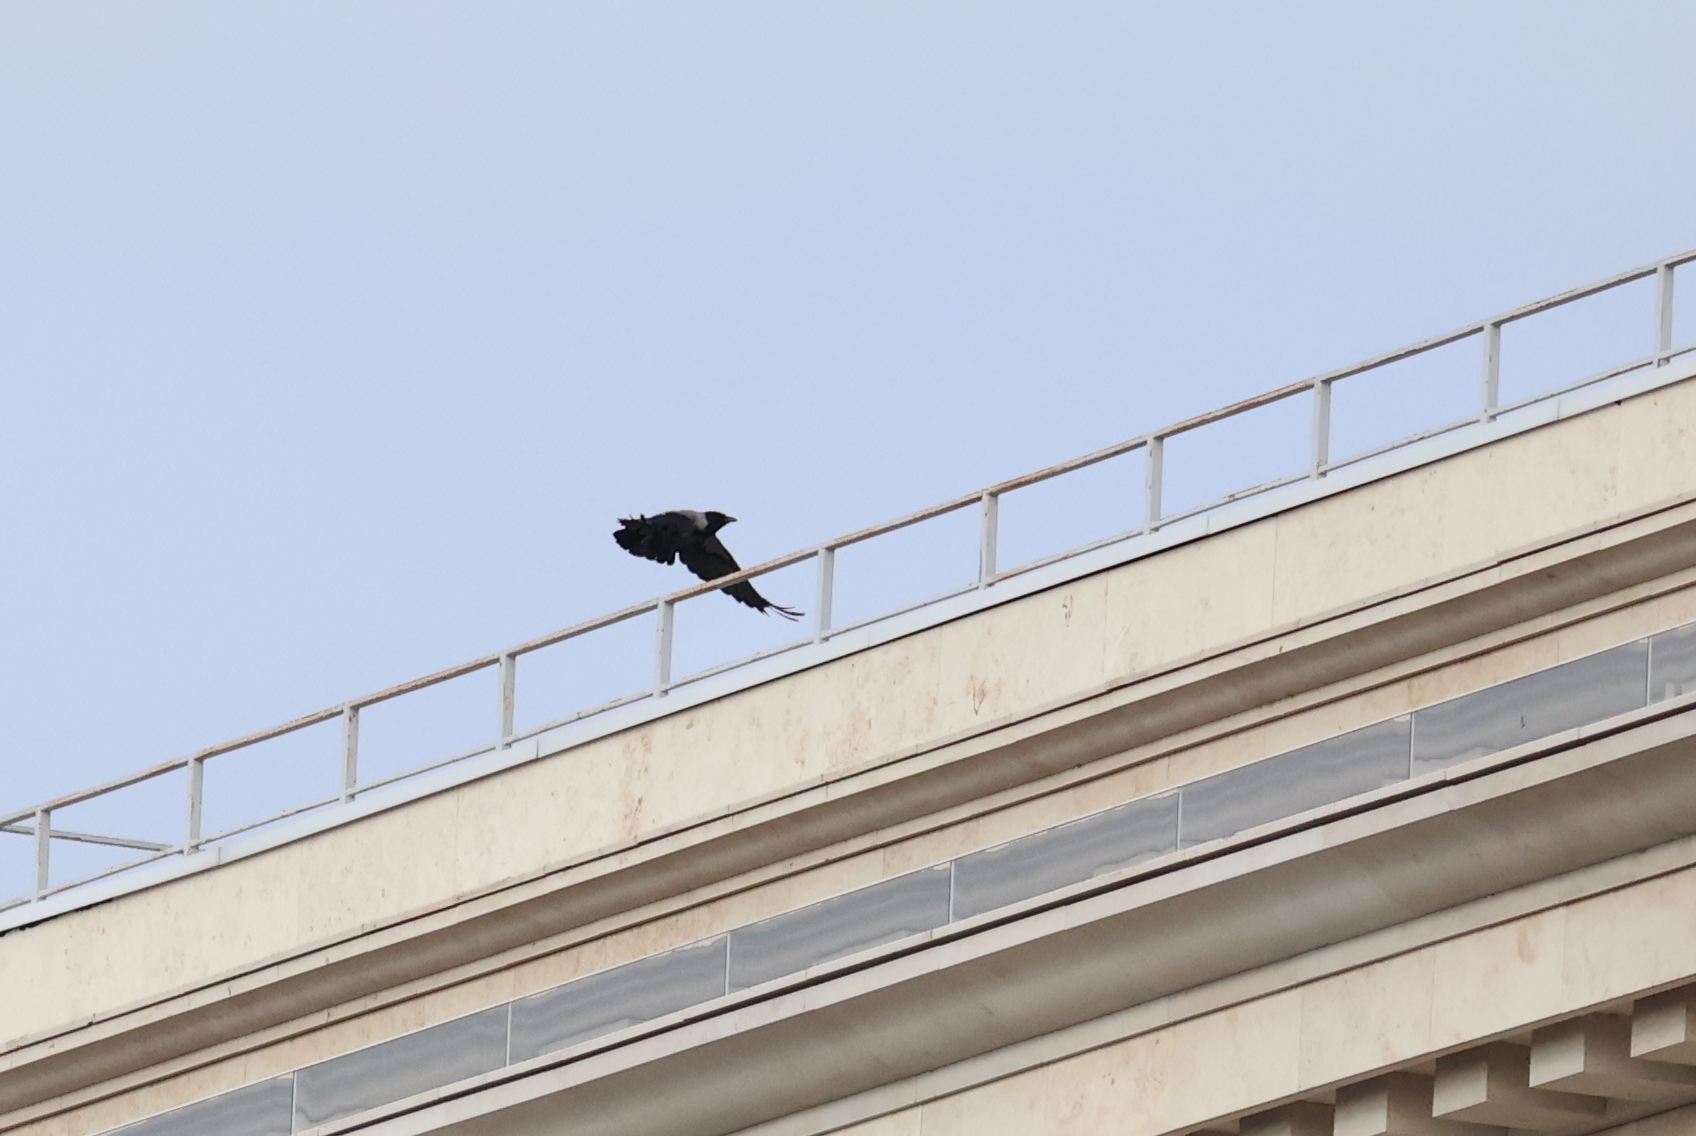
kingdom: Animalia
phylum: Chordata
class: Aves
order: Passeriformes
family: Corvidae
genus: Corvus
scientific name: Corvus cornix
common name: Hooded crow
